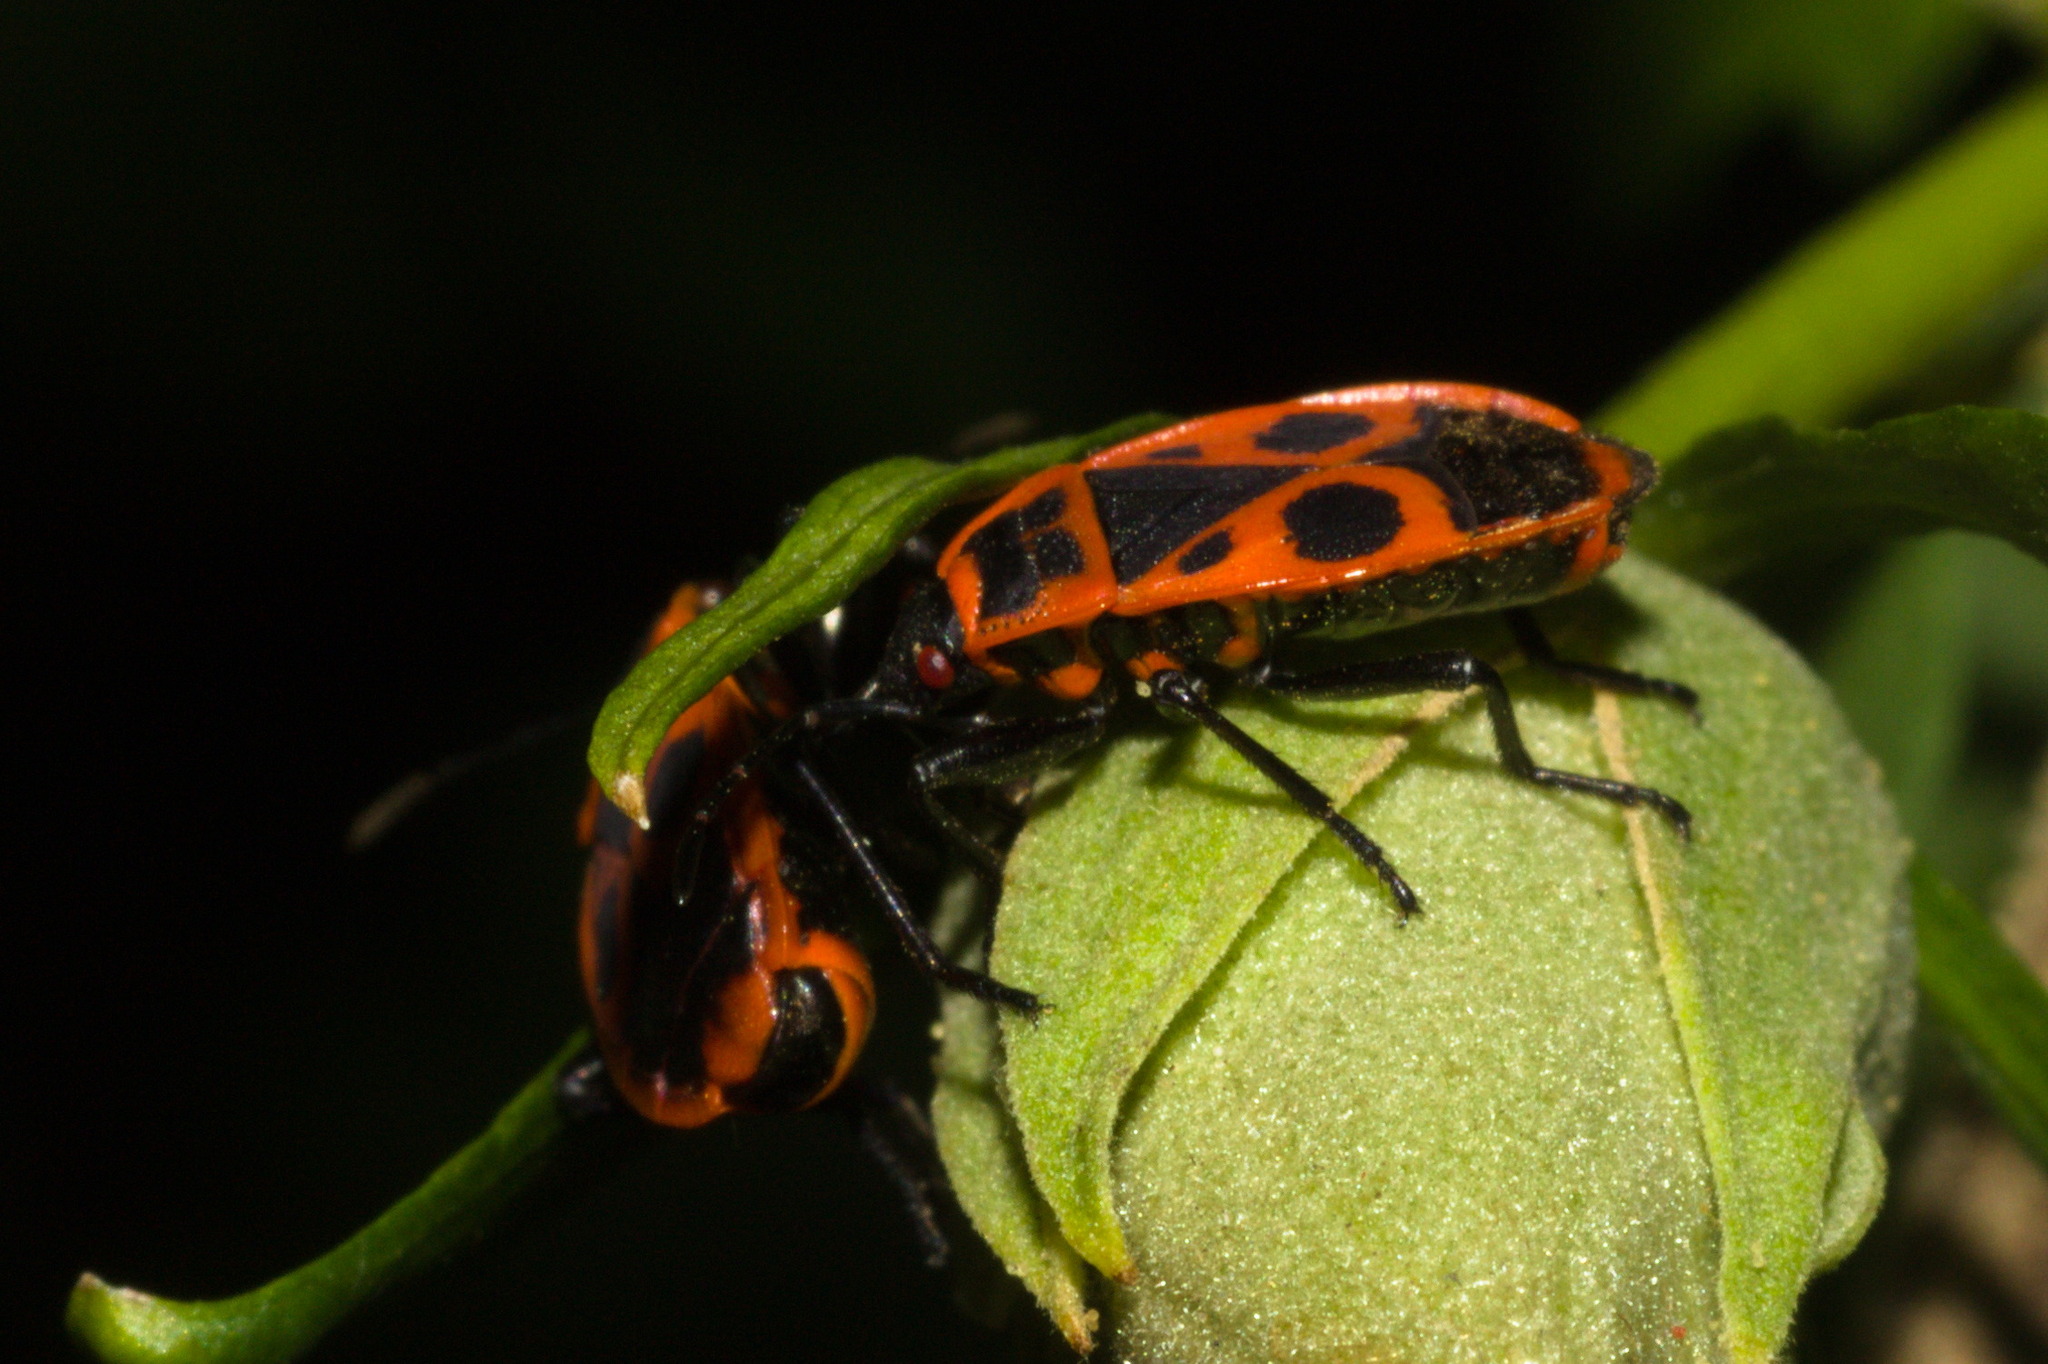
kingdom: Animalia
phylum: Arthropoda
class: Insecta
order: Hemiptera
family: Pyrrhocoridae
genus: Pyrrhocoris
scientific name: Pyrrhocoris apterus
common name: Firebug
